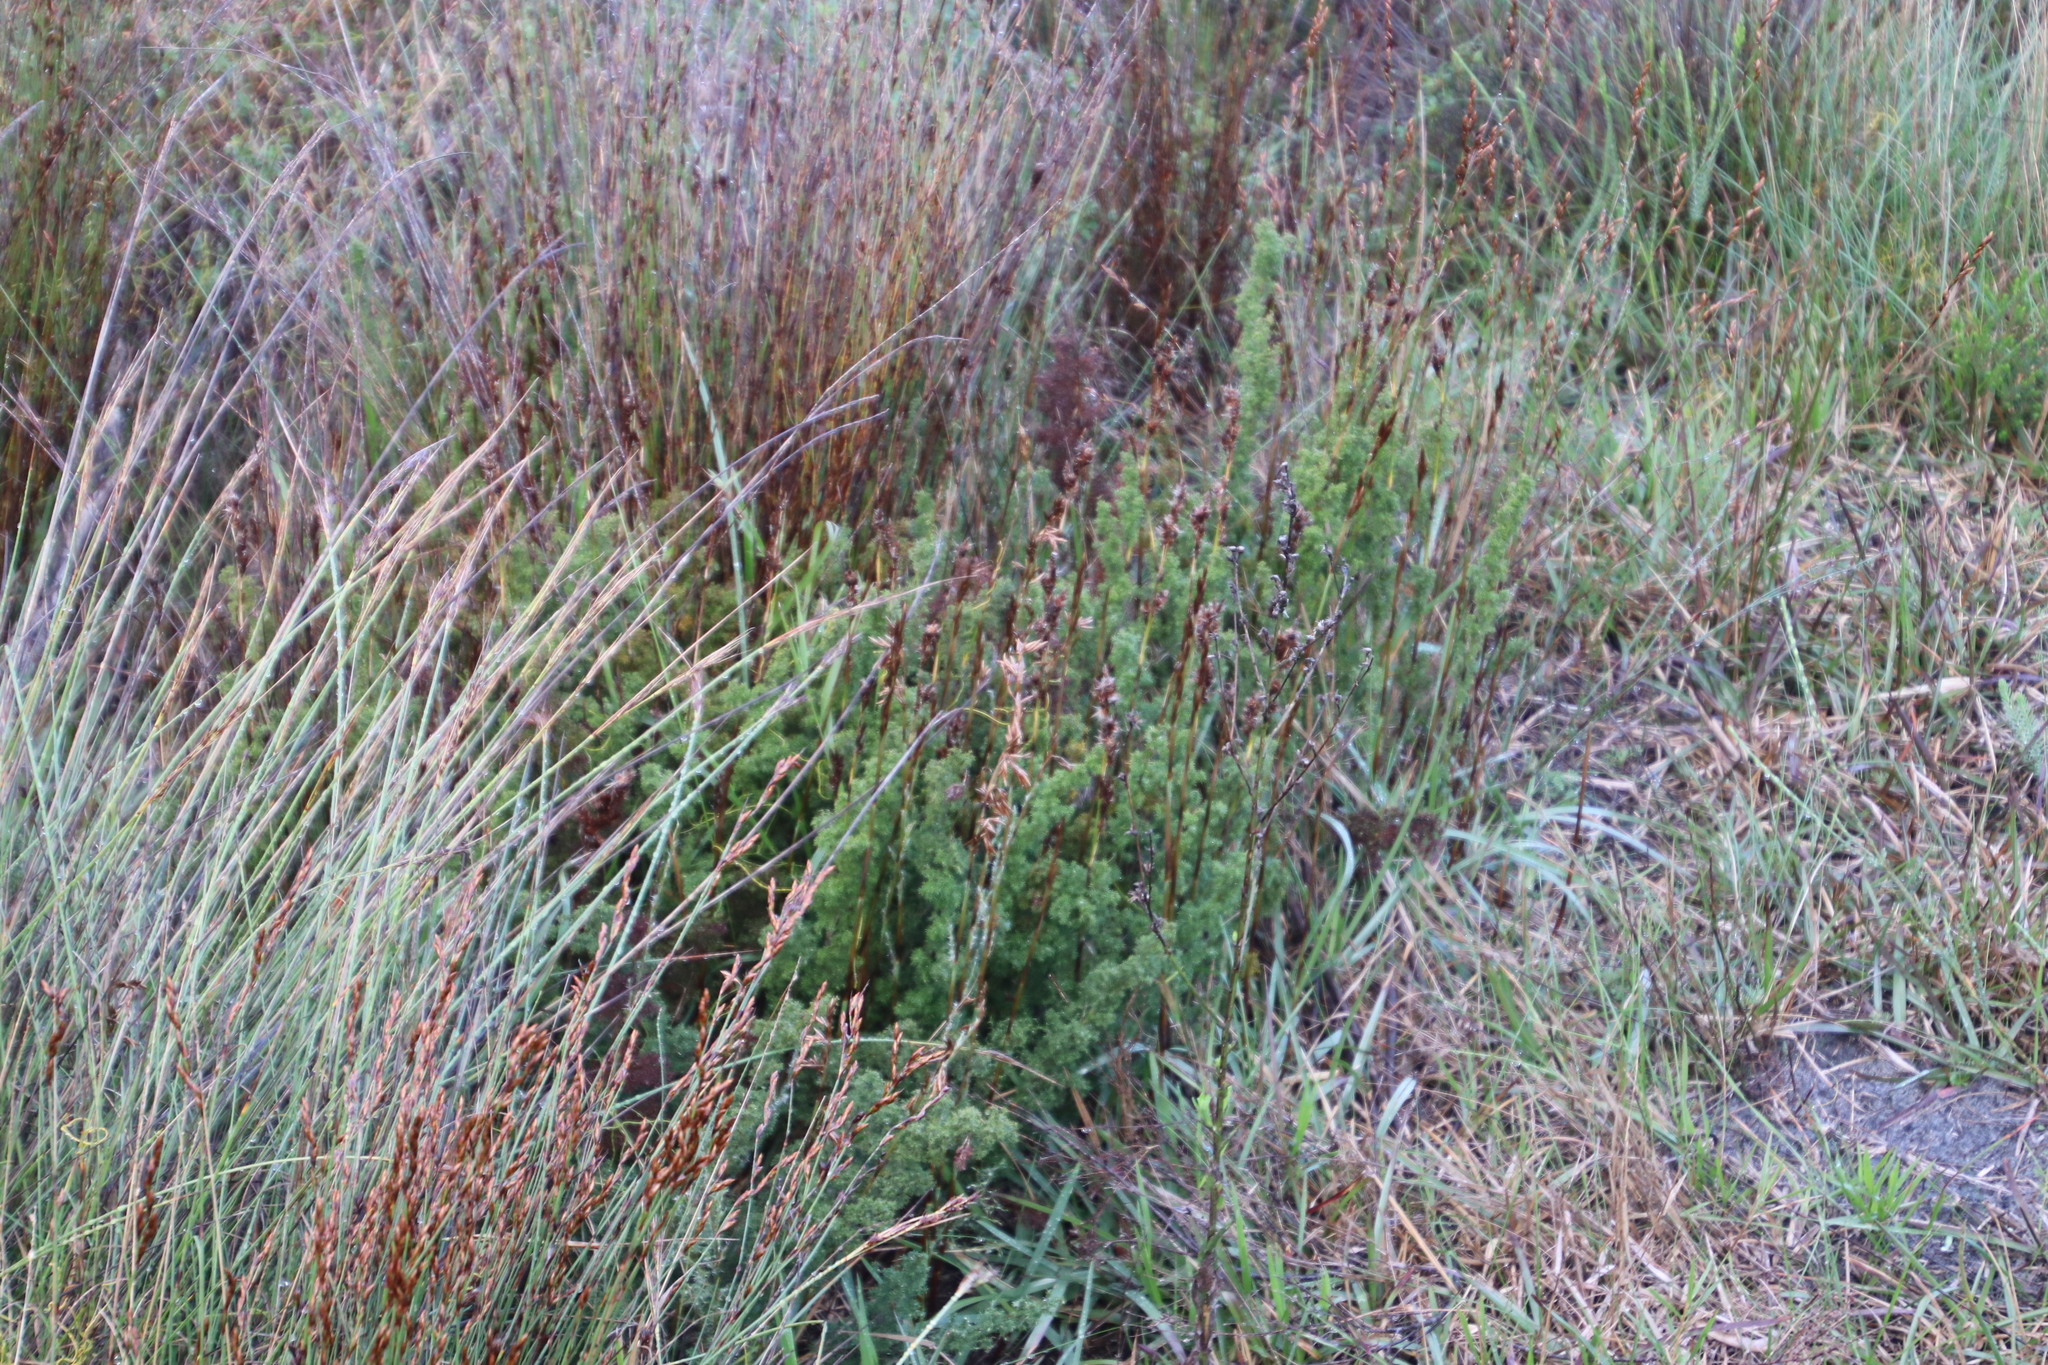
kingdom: Plantae
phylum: Tracheophyta
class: Liliopsida
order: Poales
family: Restionaceae
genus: Thamnochortus
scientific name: Thamnochortus fruticosus
